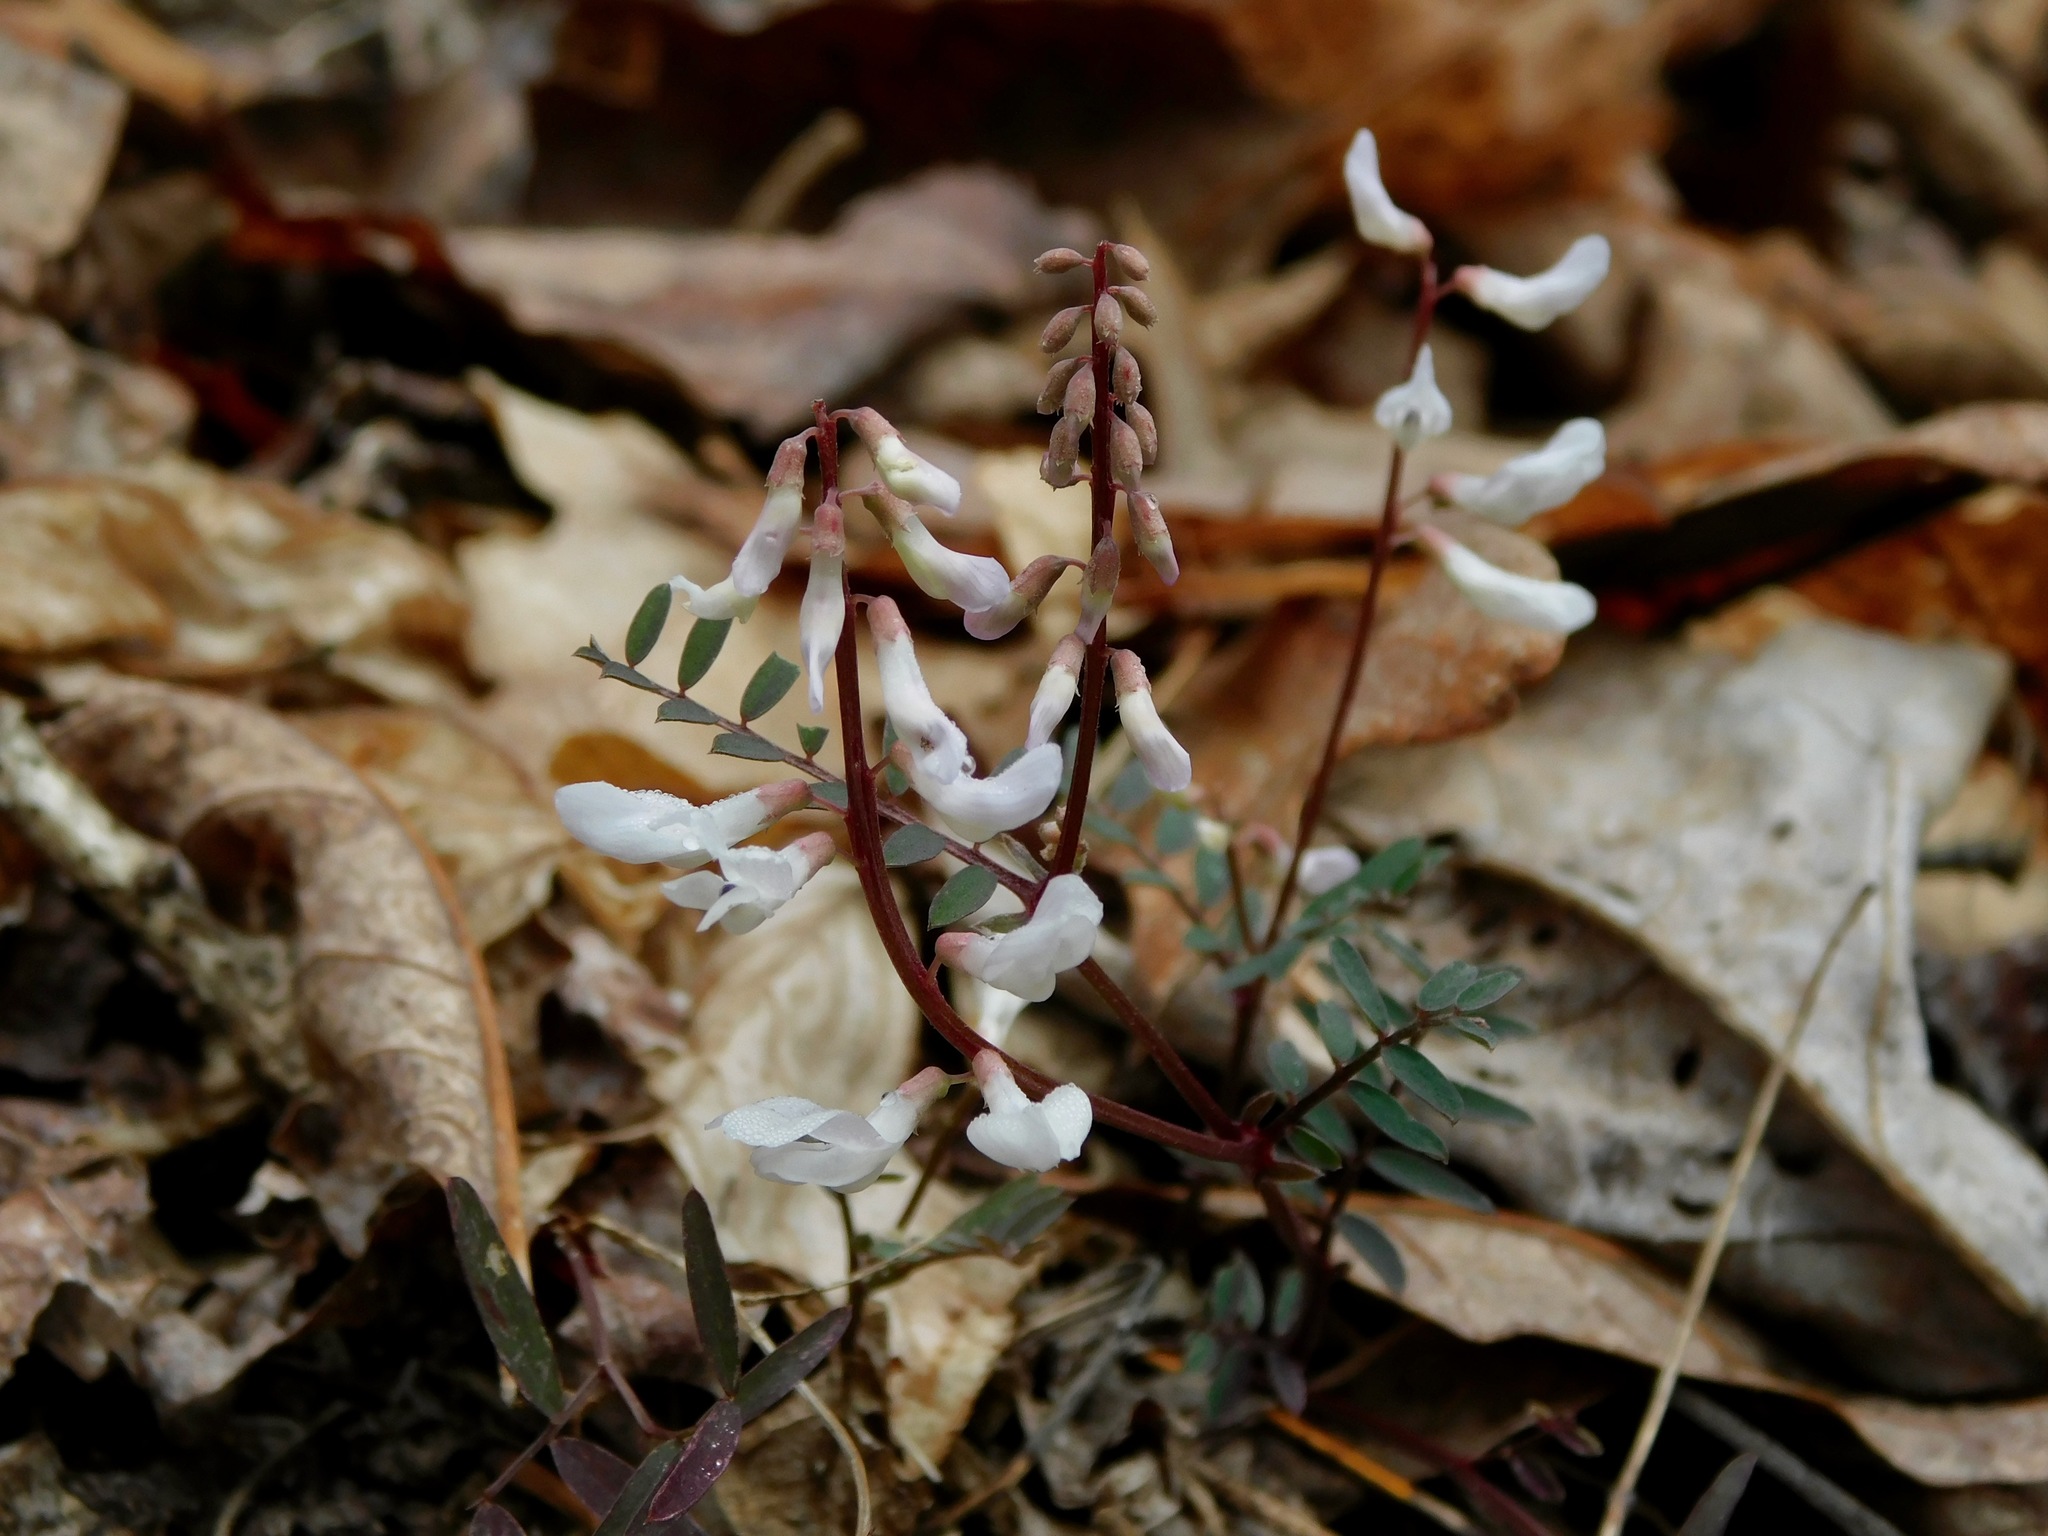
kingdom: Plantae
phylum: Tracheophyta
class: Magnoliopsida
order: Fabales
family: Fabaceae
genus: Vicia
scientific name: Vicia caroliniana
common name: Carolina vetch
